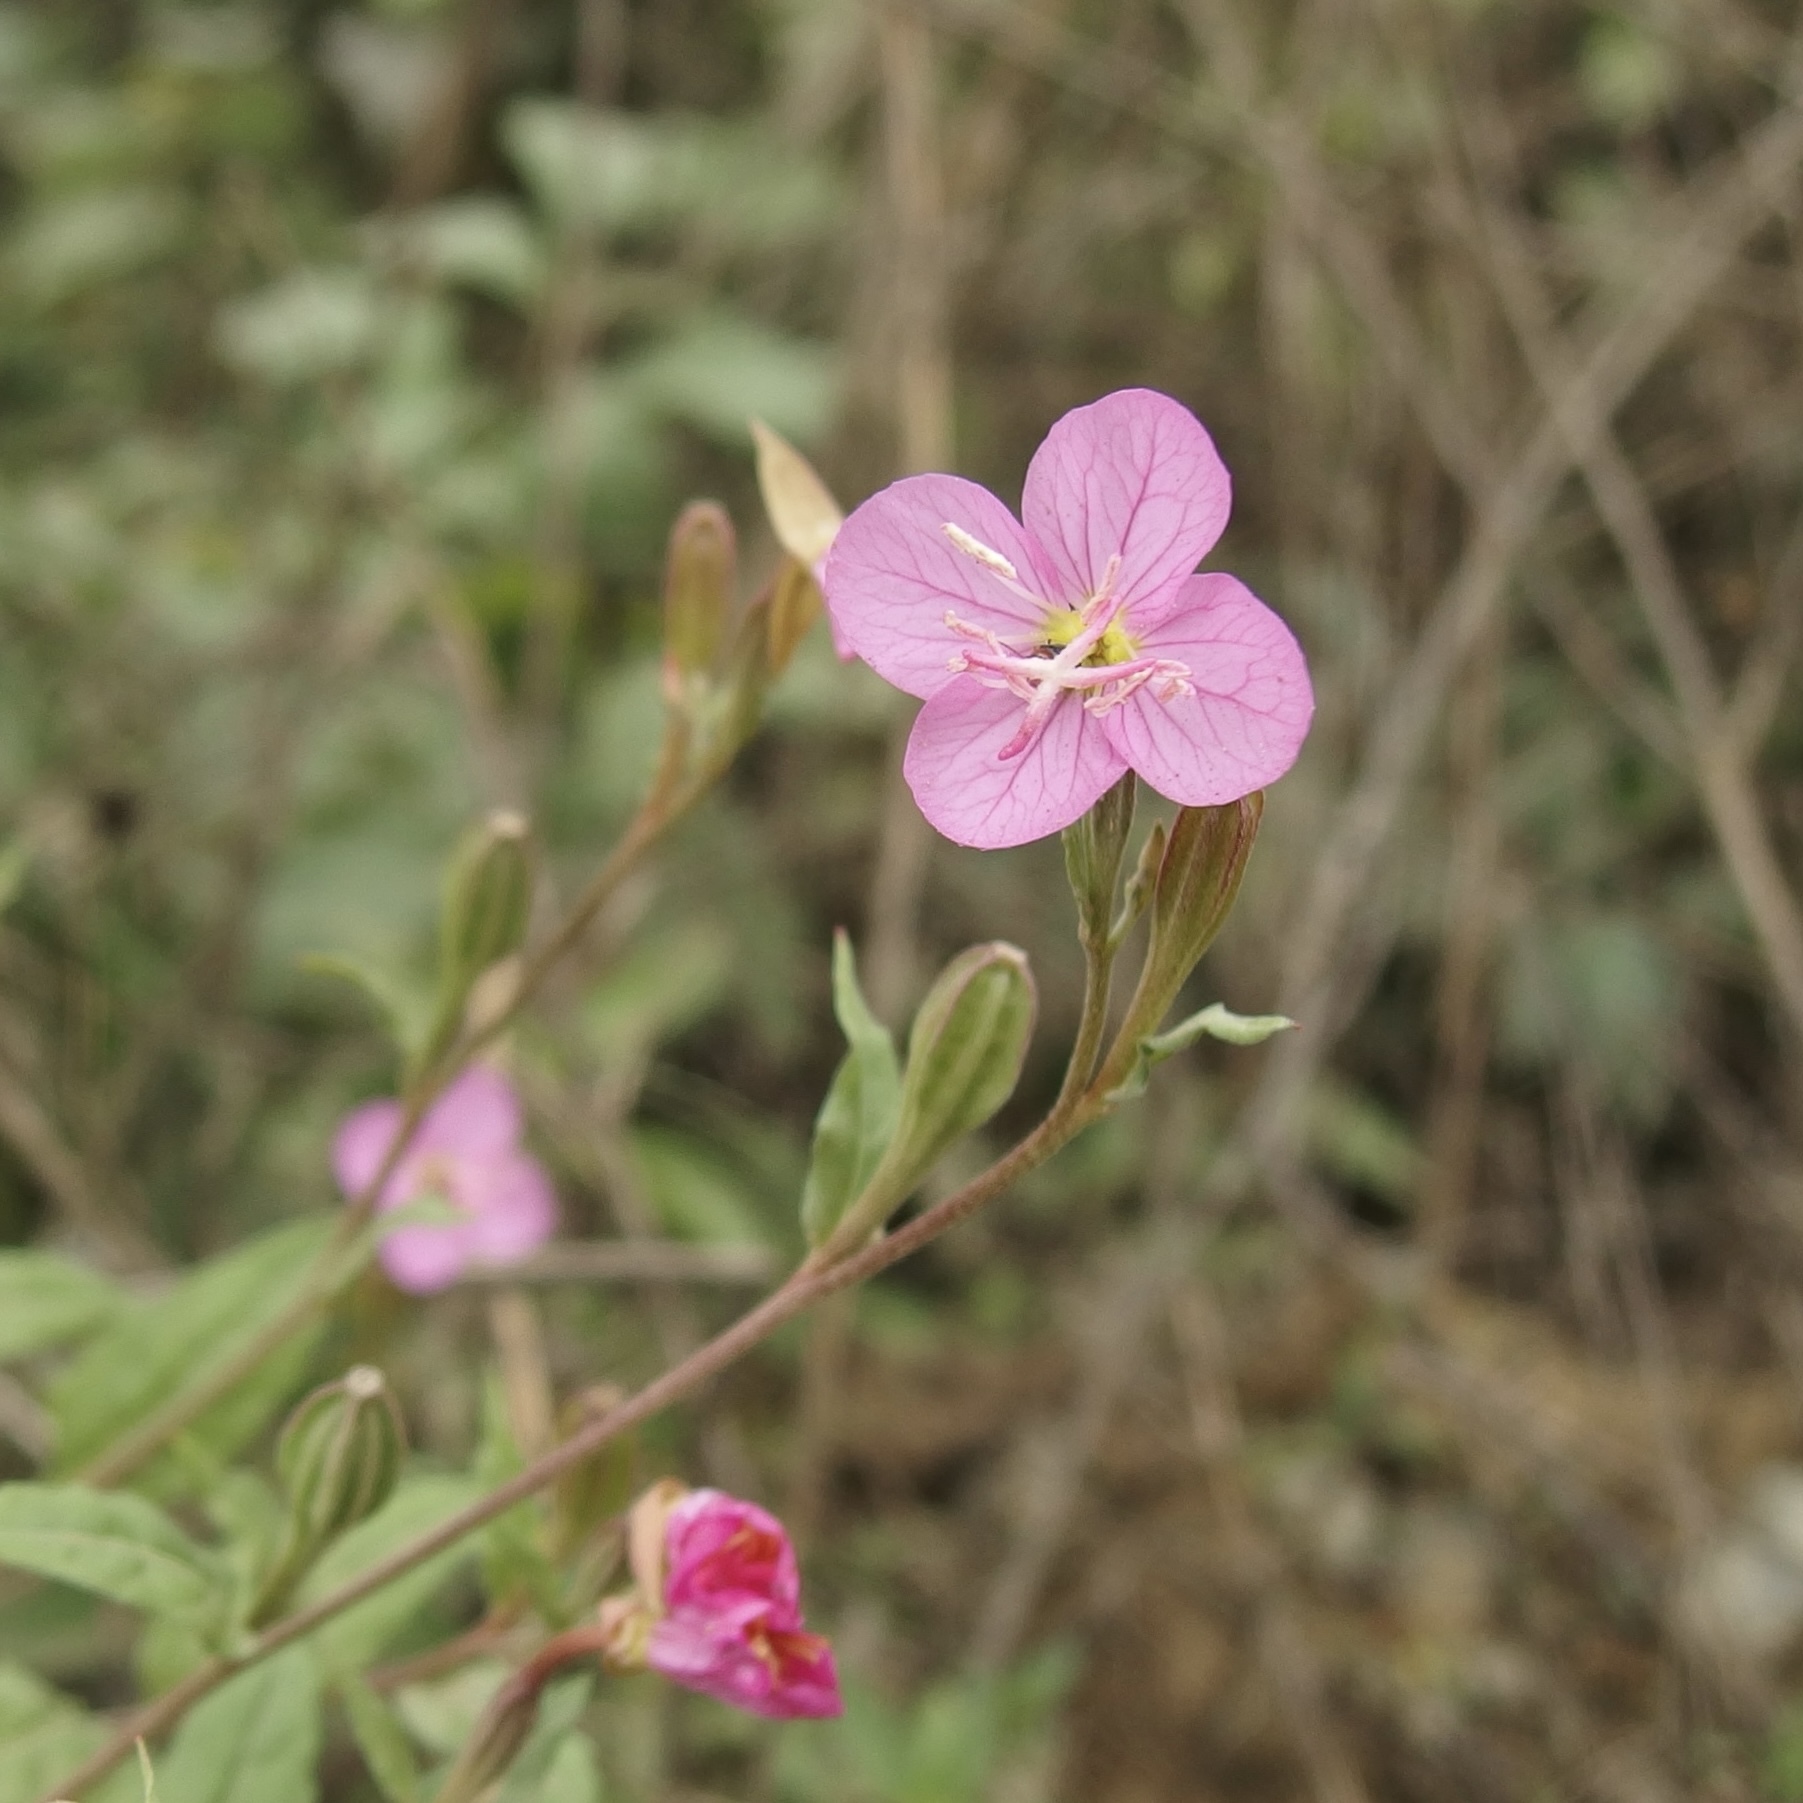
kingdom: Plantae
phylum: Tracheophyta
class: Magnoliopsida
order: Myrtales
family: Onagraceae
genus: Oenothera
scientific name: Oenothera rosea
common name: Rosy evening-primrose
